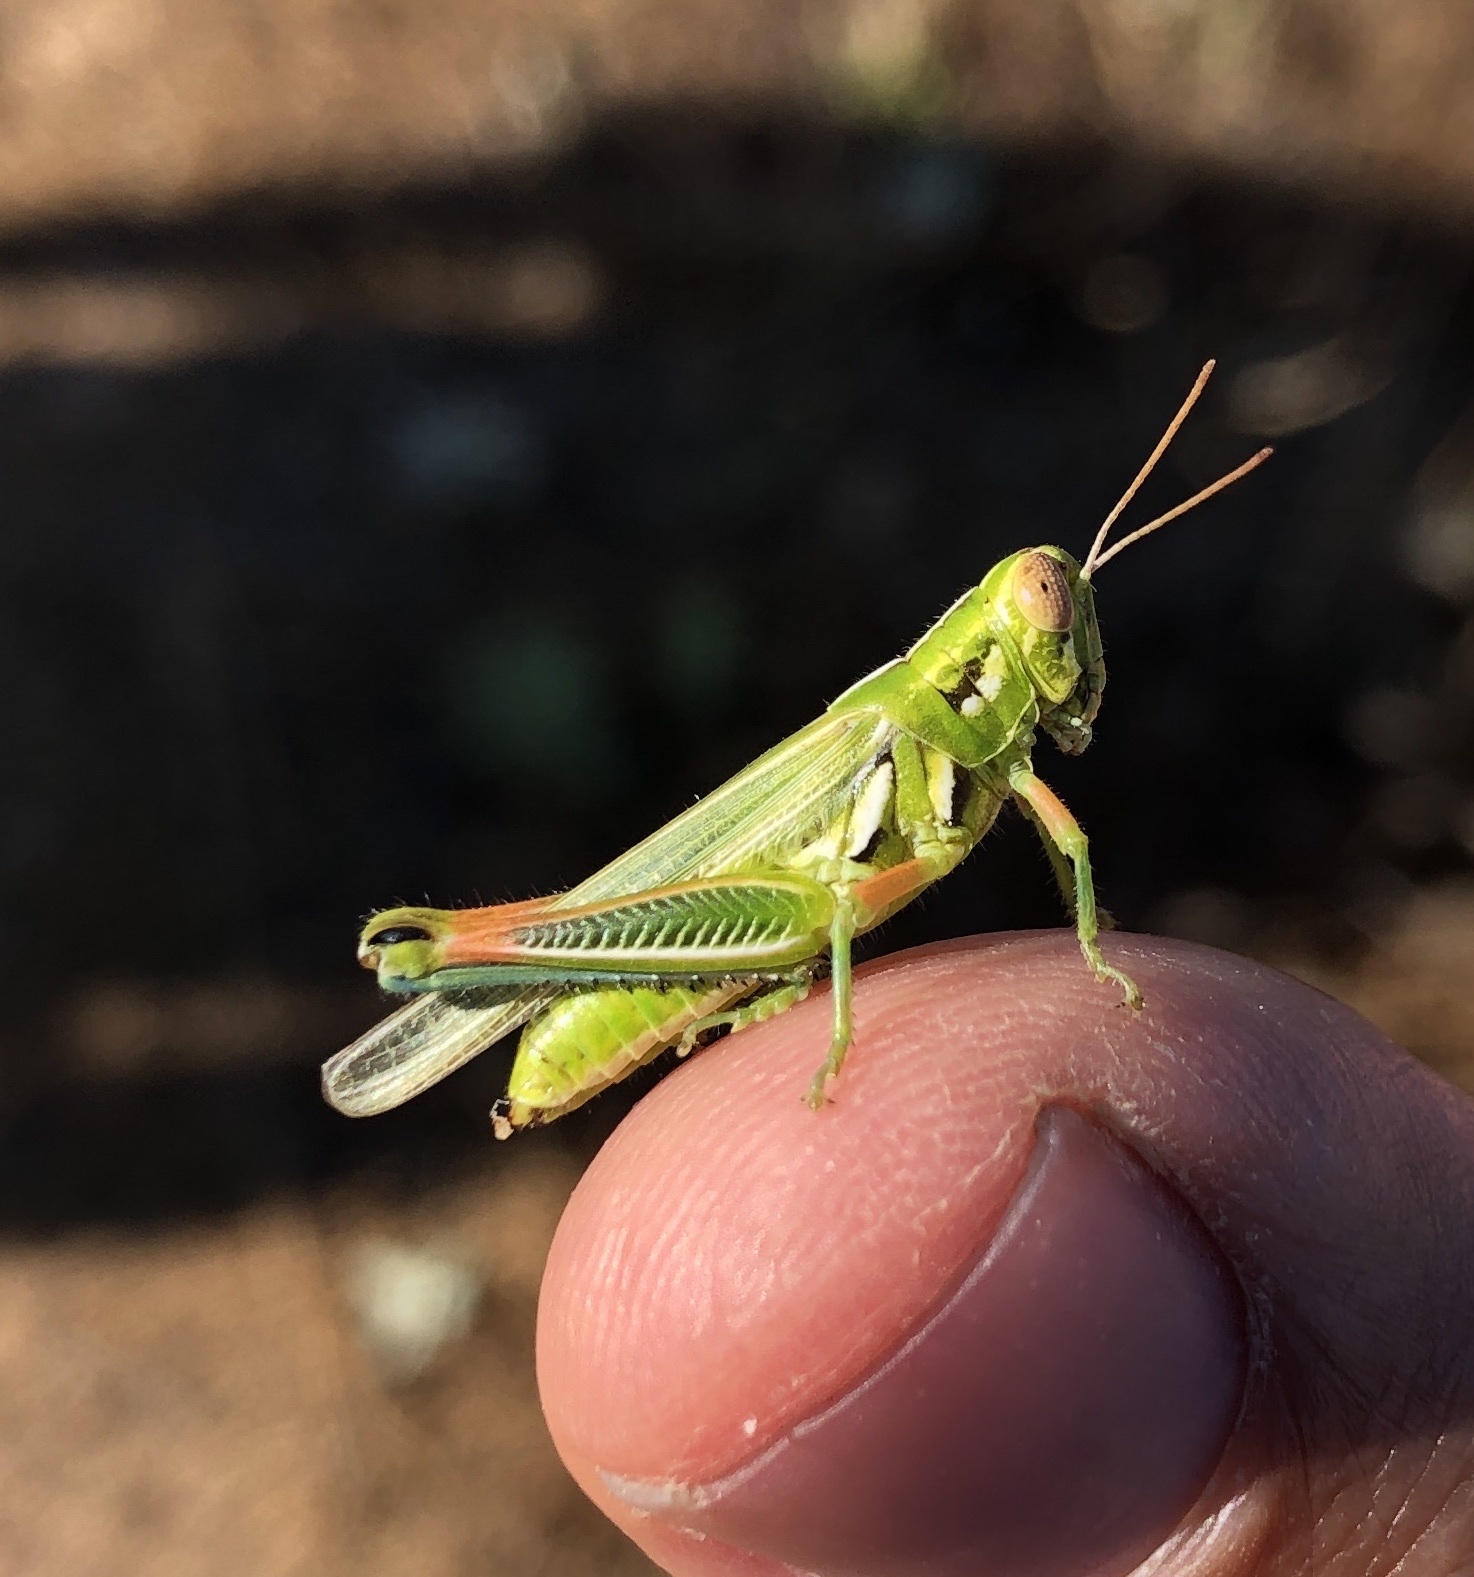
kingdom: Animalia
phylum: Arthropoda
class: Insecta
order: Orthoptera
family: Acrididae
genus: Hesperotettix
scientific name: Hesperotettix viridis
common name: Meadow purple-striped grasshopper
